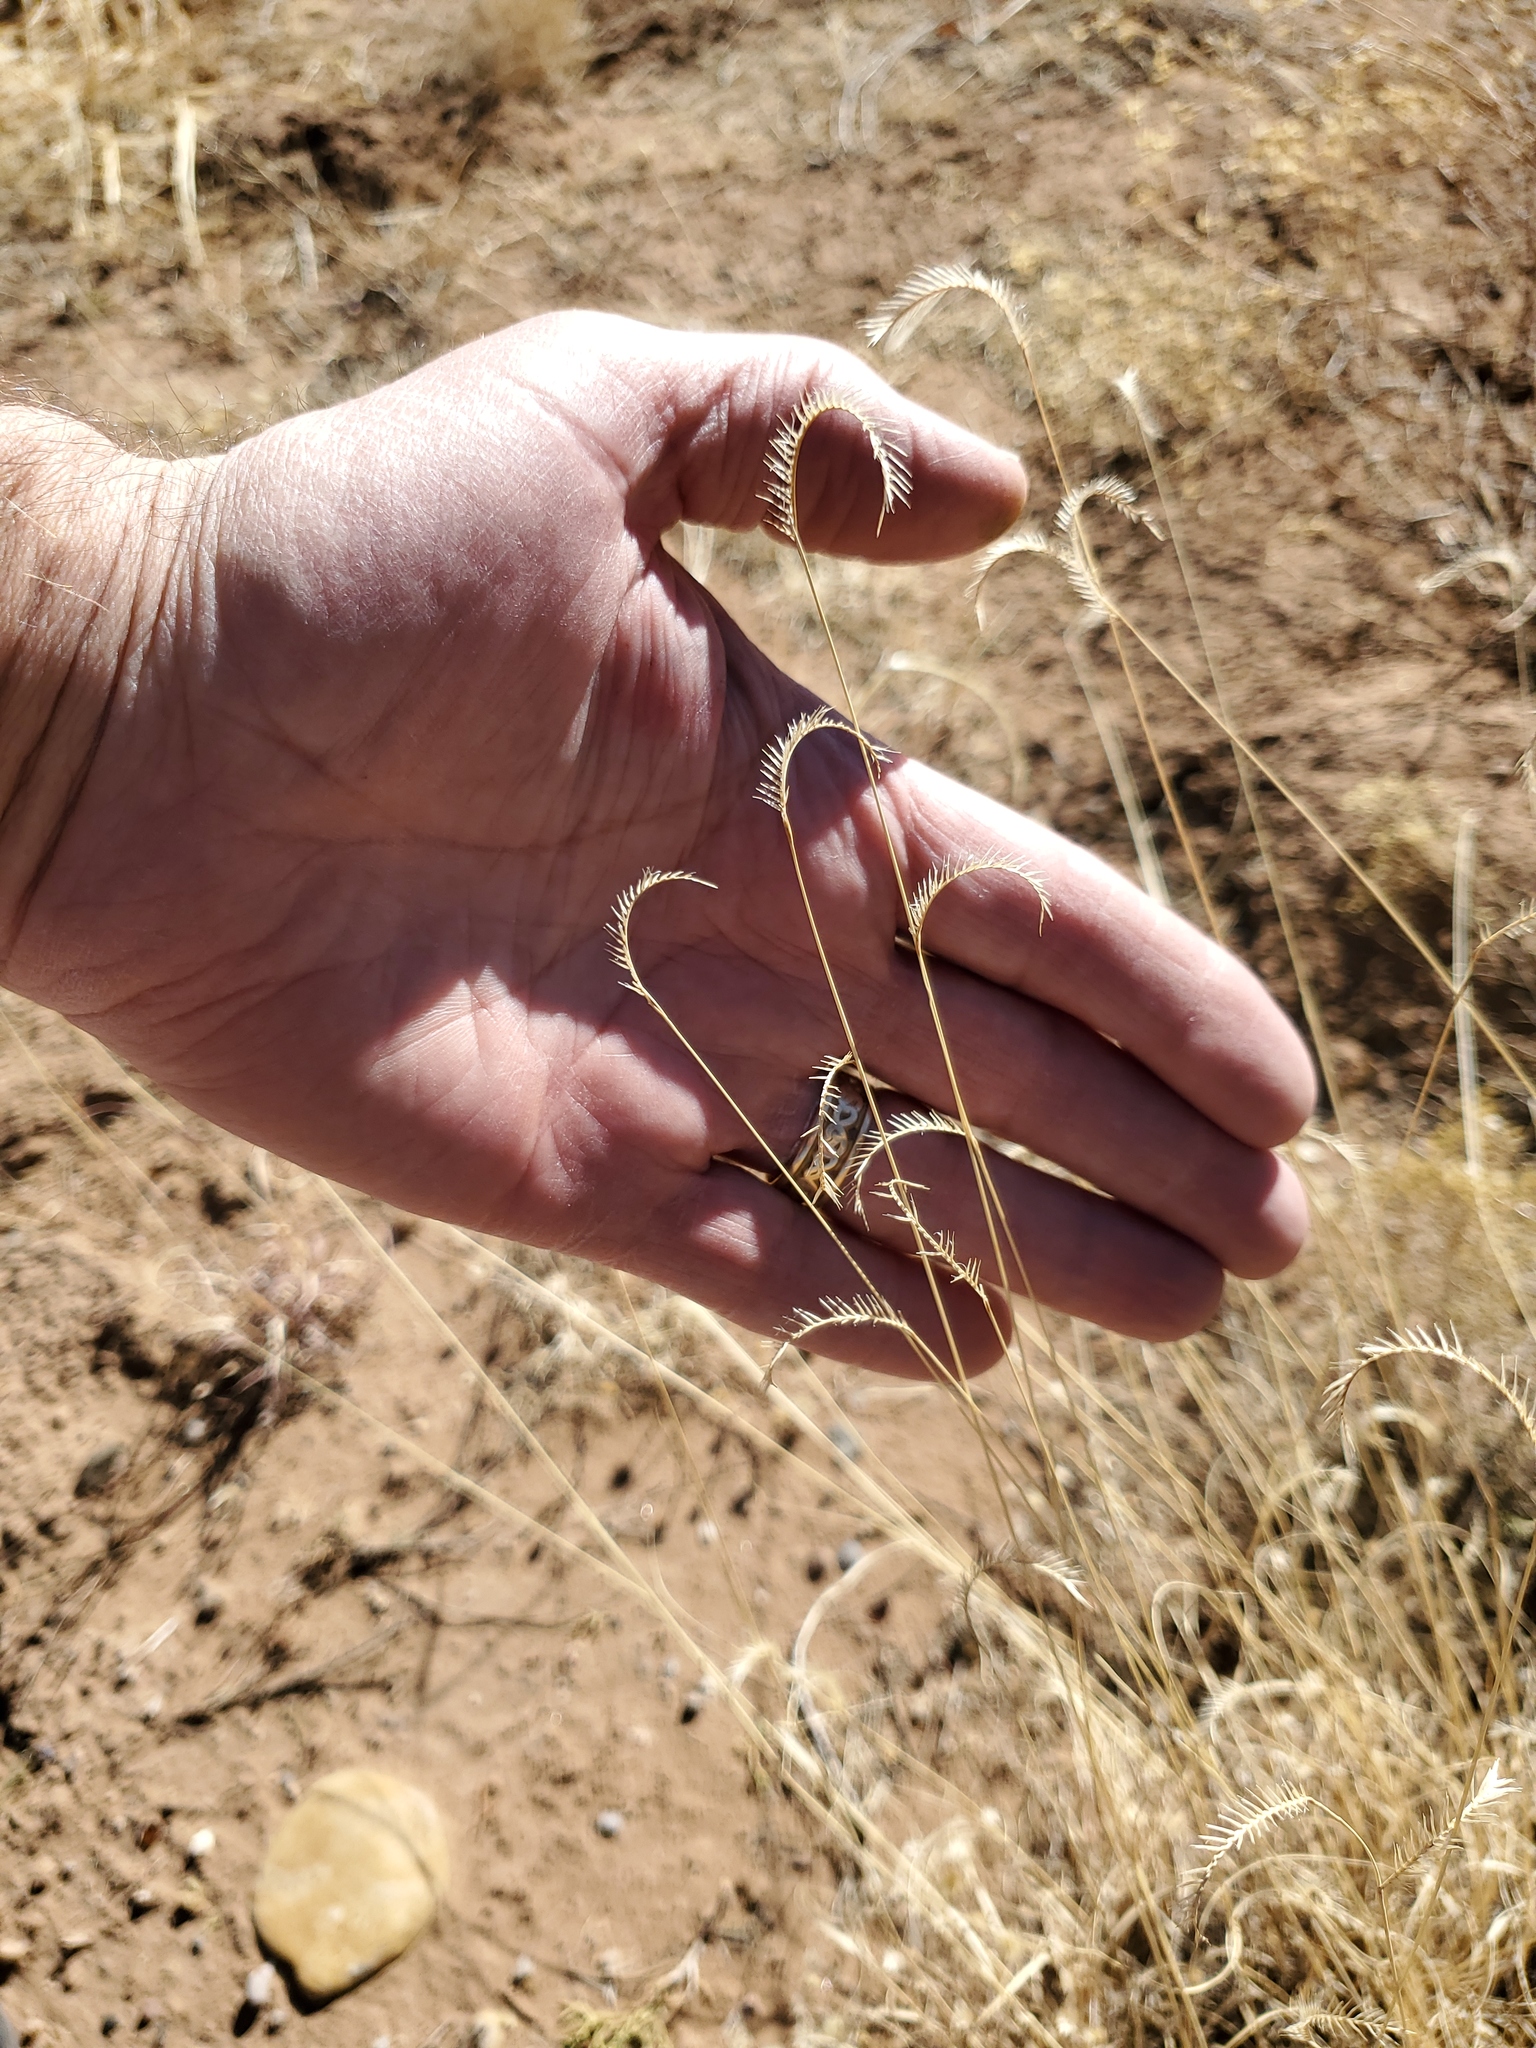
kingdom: Plantae
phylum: Tracheophyta
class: Liliopsida
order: Poales
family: Poaceae
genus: Bouteloua
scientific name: Bouteloua gracilis
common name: Blue grama
